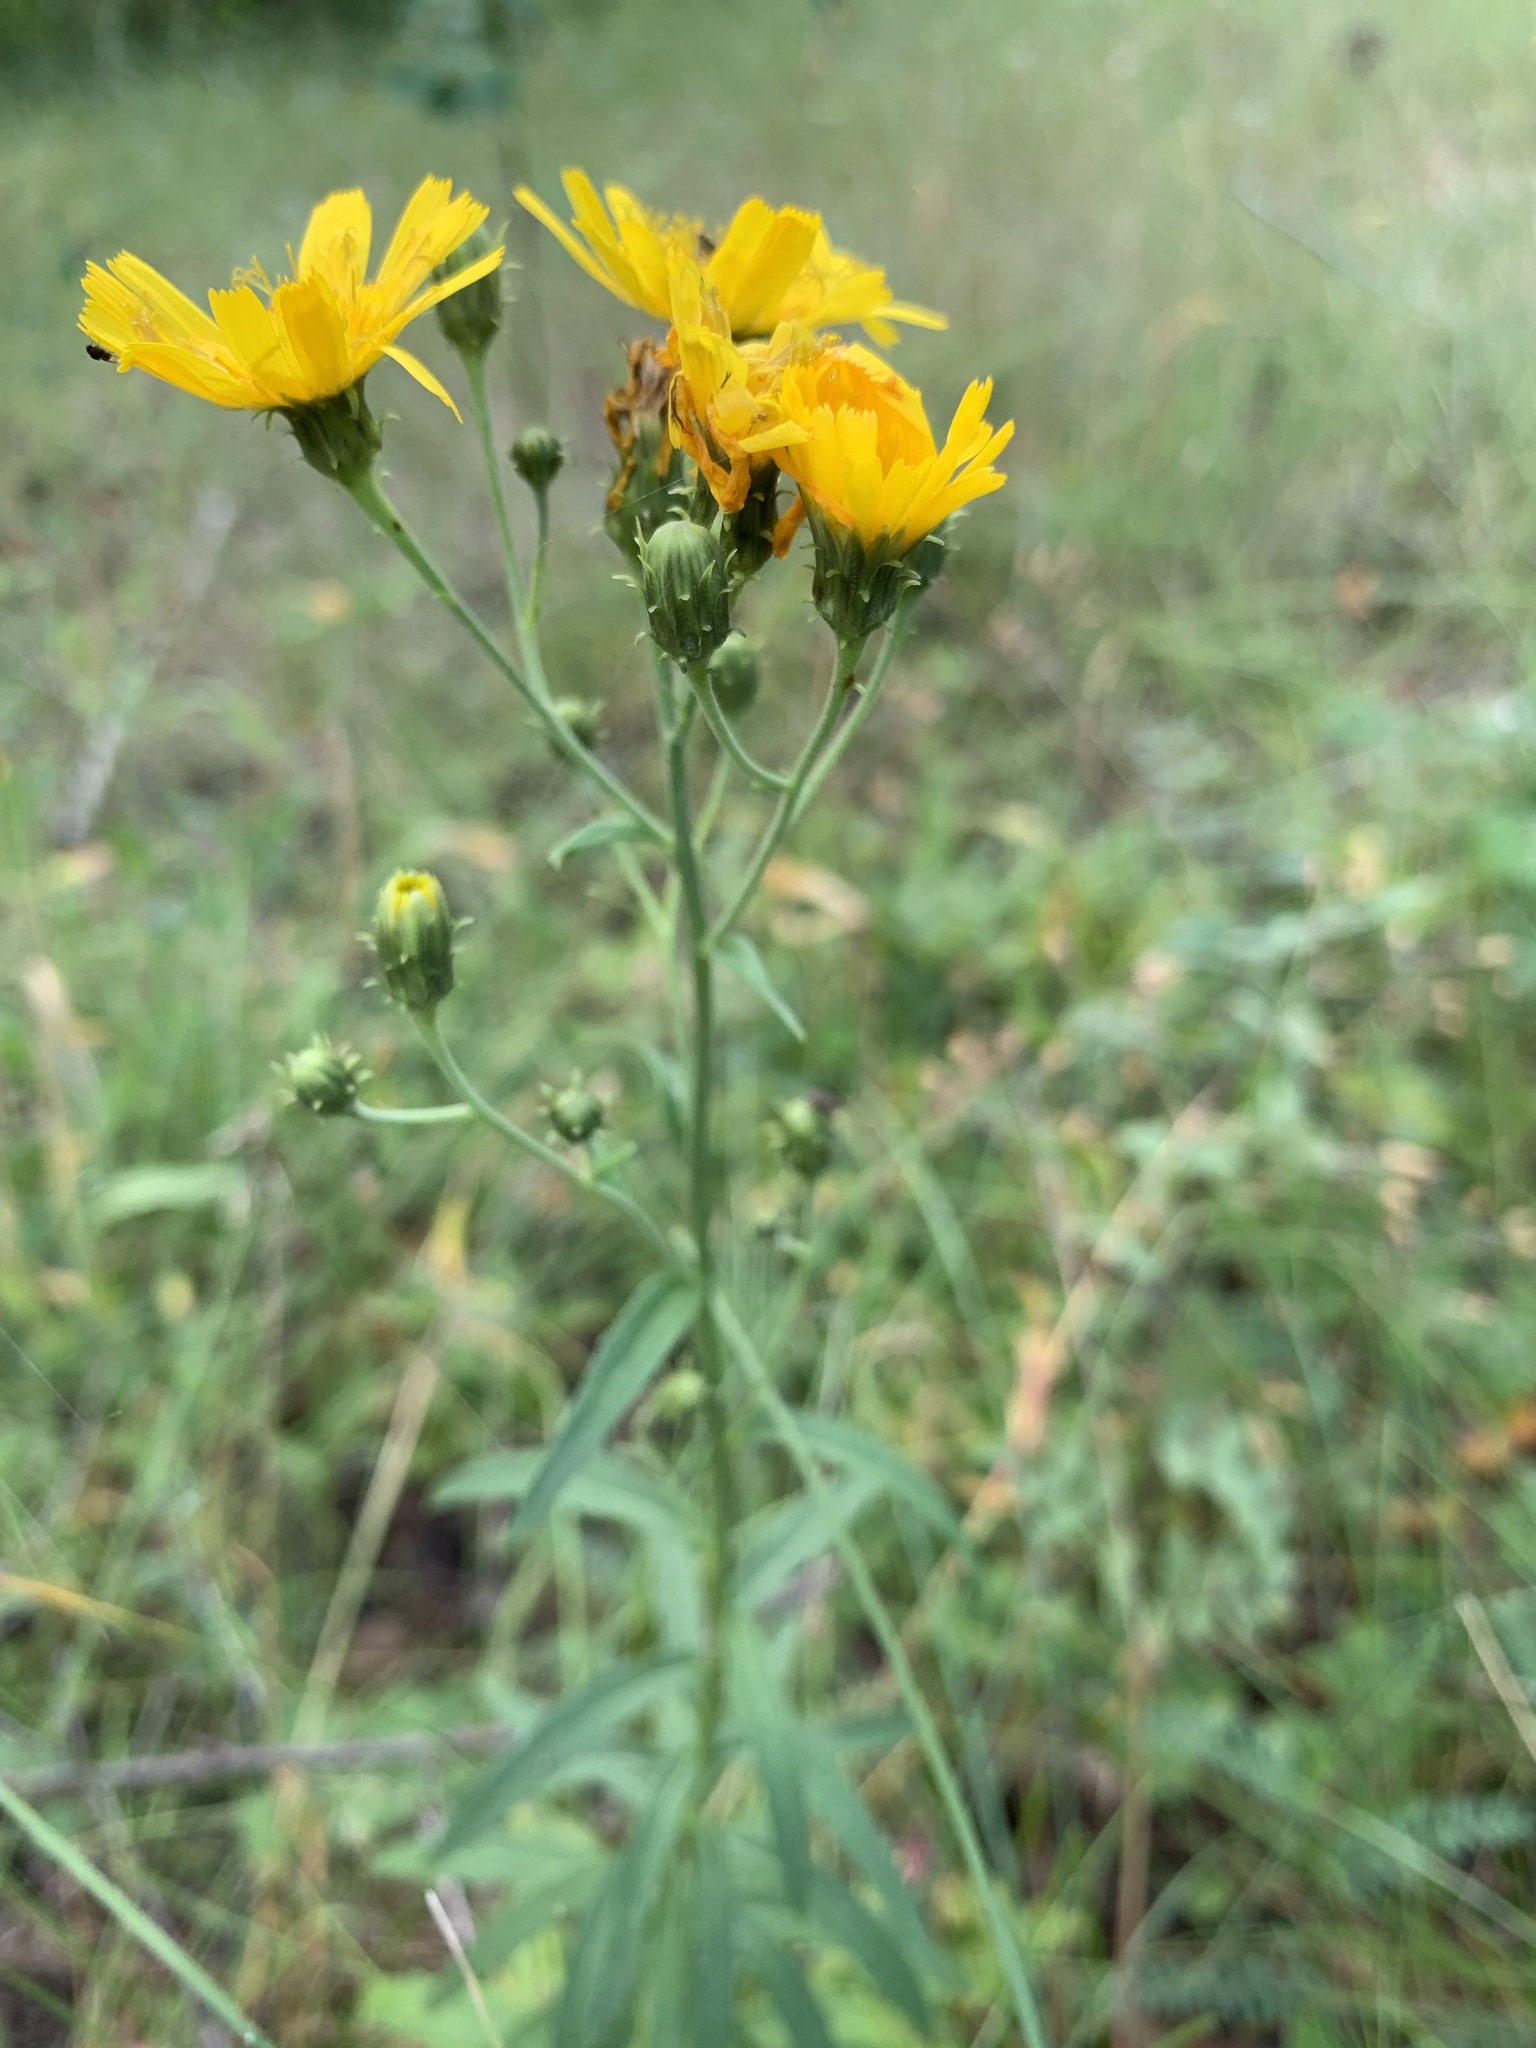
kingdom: Plantae
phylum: Tracheophyta
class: Magnoliopsida
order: Asterales
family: Asteraceae
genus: Hieracium
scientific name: Hieracium umbellatum
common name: Northern hawkweed
